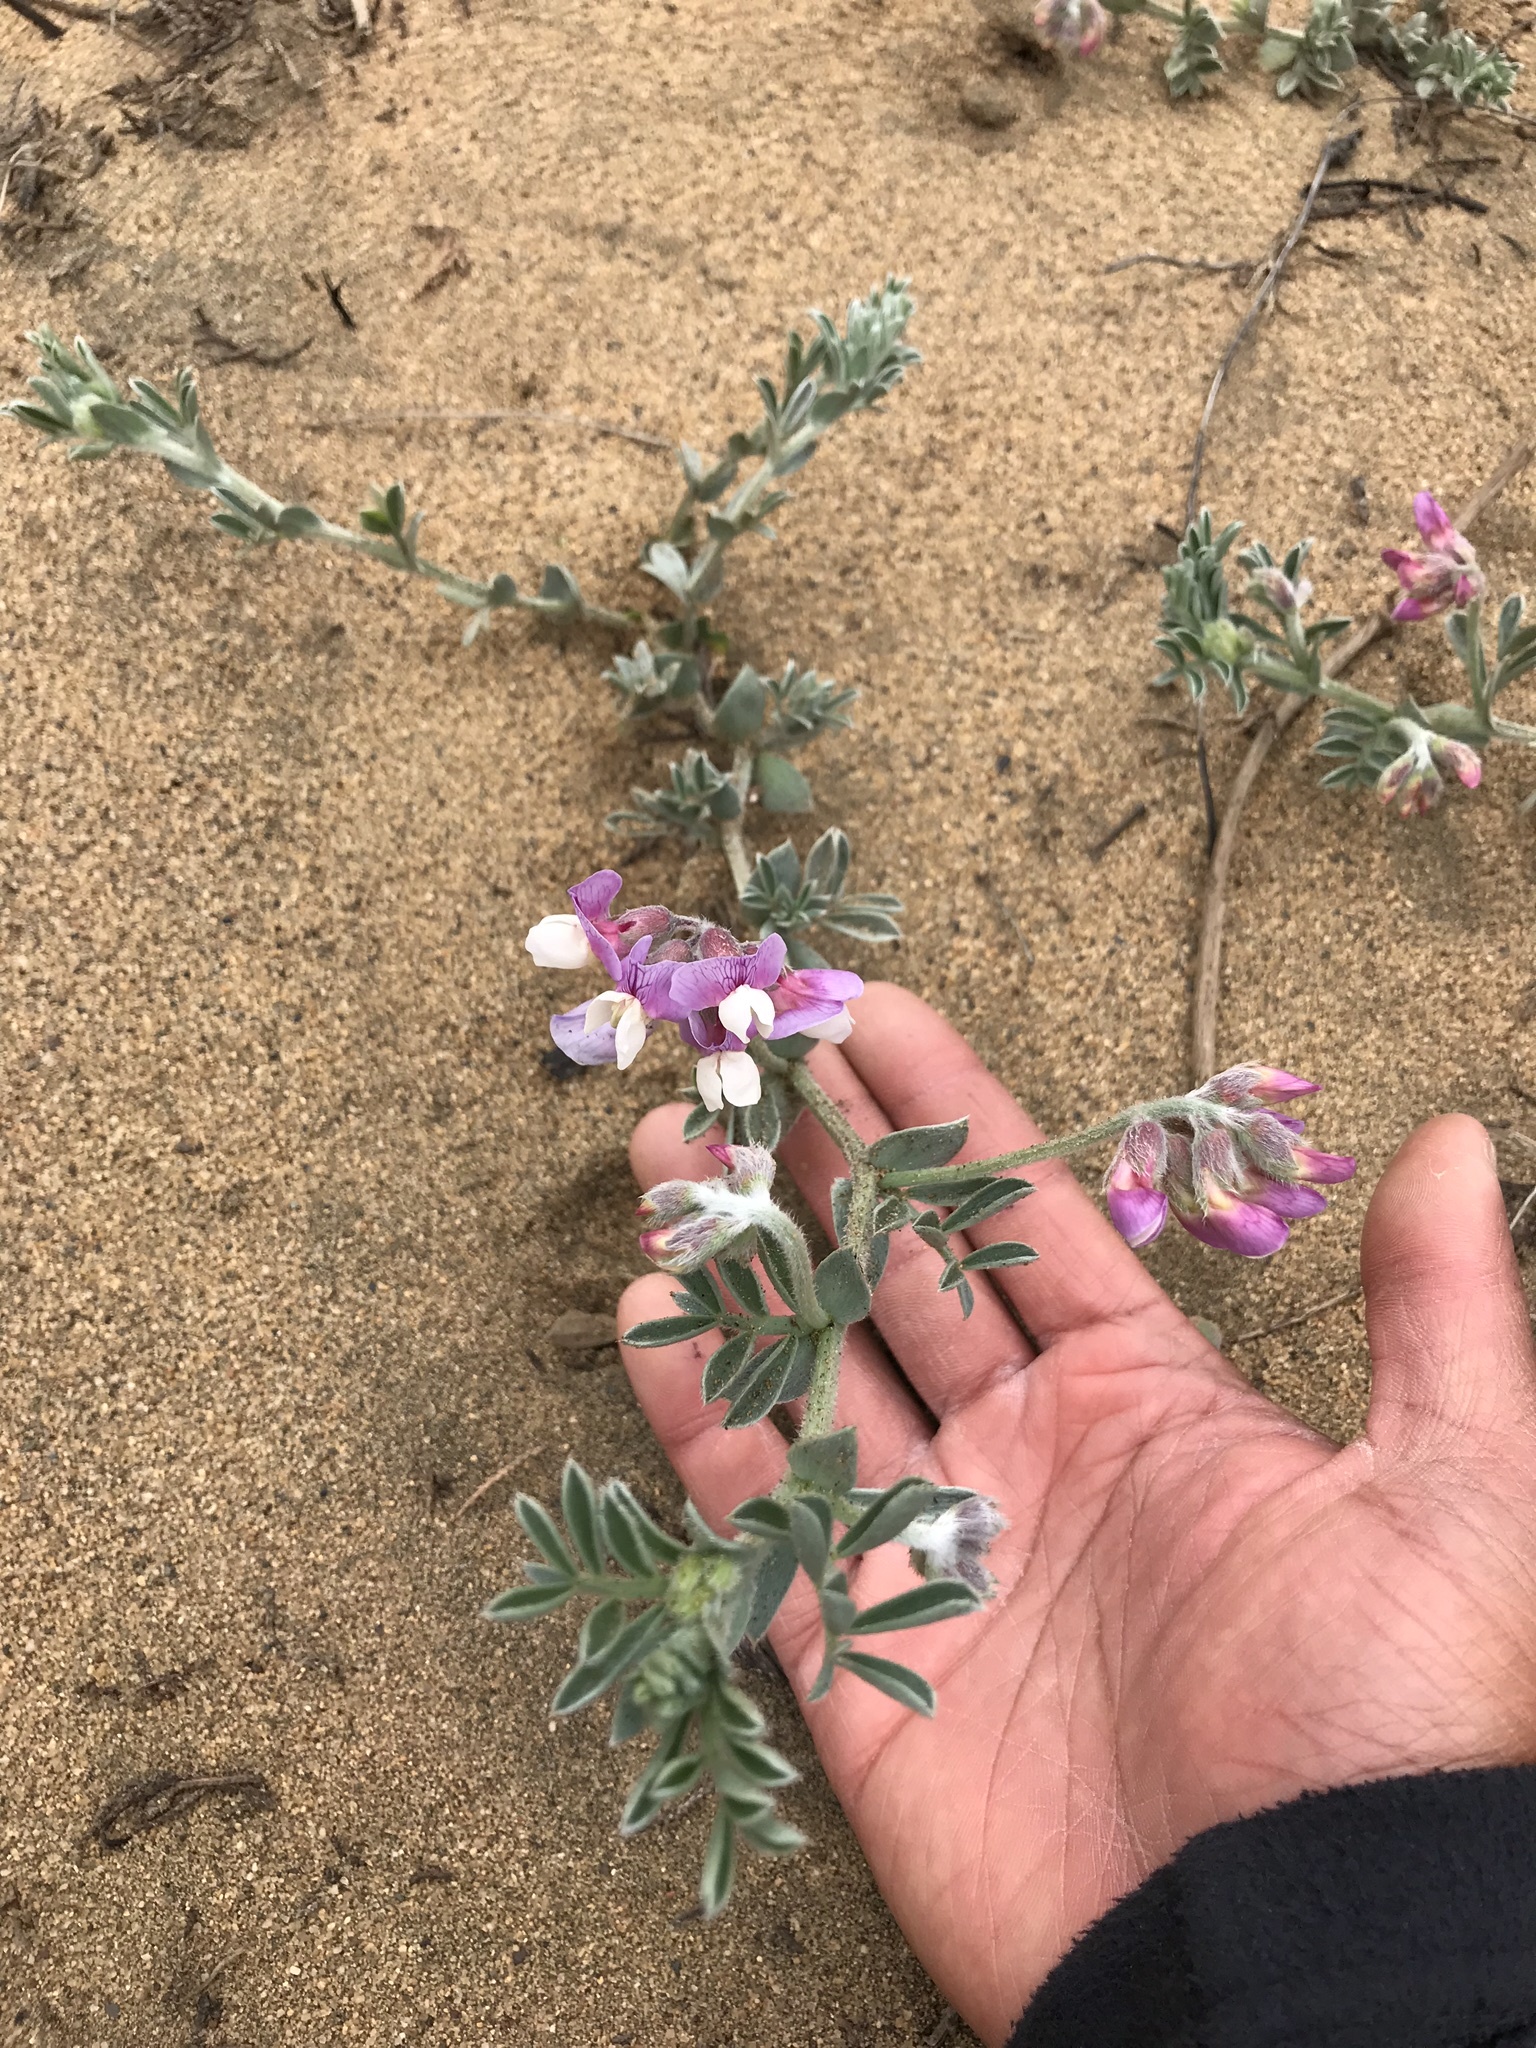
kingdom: Plantae
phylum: Tracheophyta
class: Magnoliopsida
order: Fabales
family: Fabaceae
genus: Lathyrus
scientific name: Lathyrus littoralis
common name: Dune sweet pea
